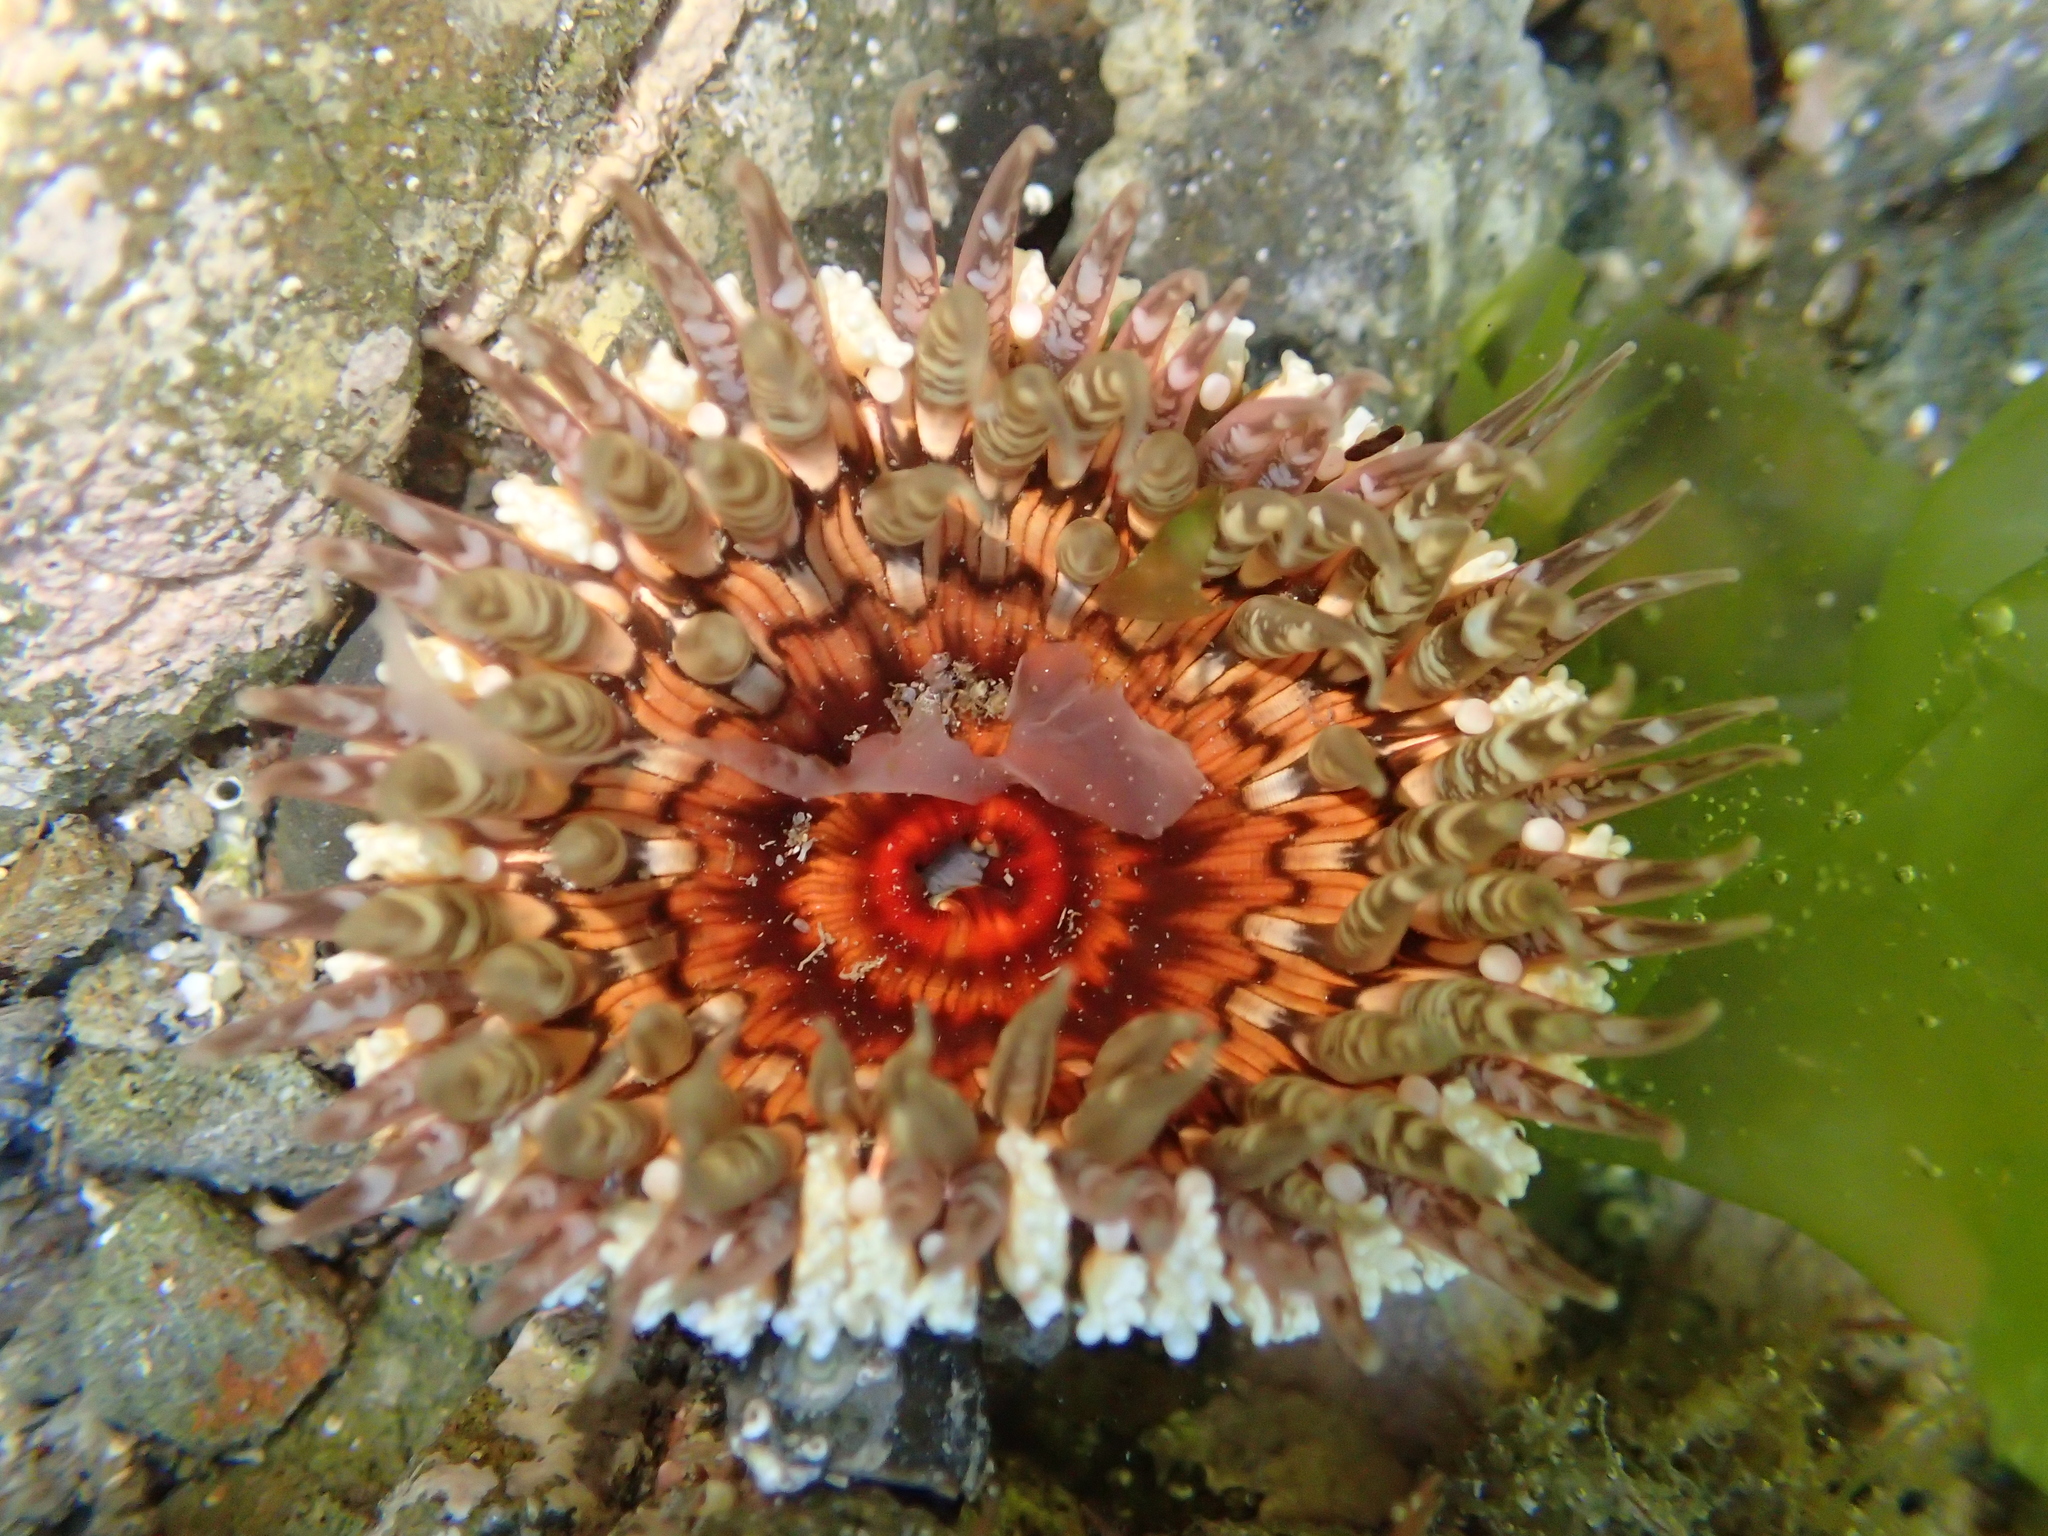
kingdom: Animalia
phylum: Cnidaria
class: Anthozoa
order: Actiniaria
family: Actiniidae
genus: Oulactis
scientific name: Oulactis muscosa
